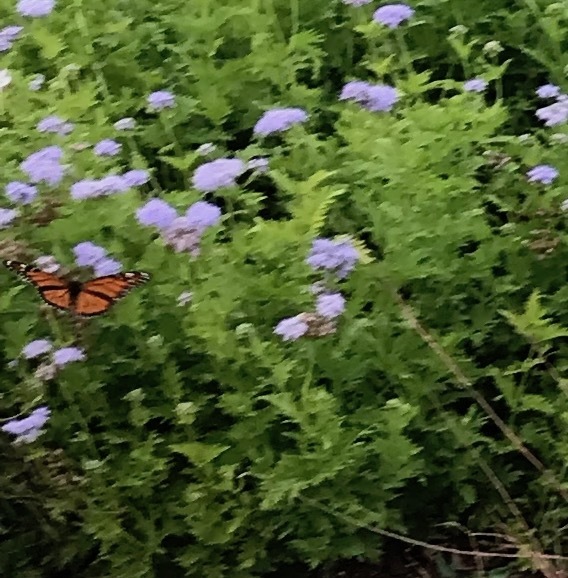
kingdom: Animalia
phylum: Arthropoda
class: Insecta
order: Lepidoptera
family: Nymphalidae
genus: Danaus
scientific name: Danaus plexippus
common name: Monarch
